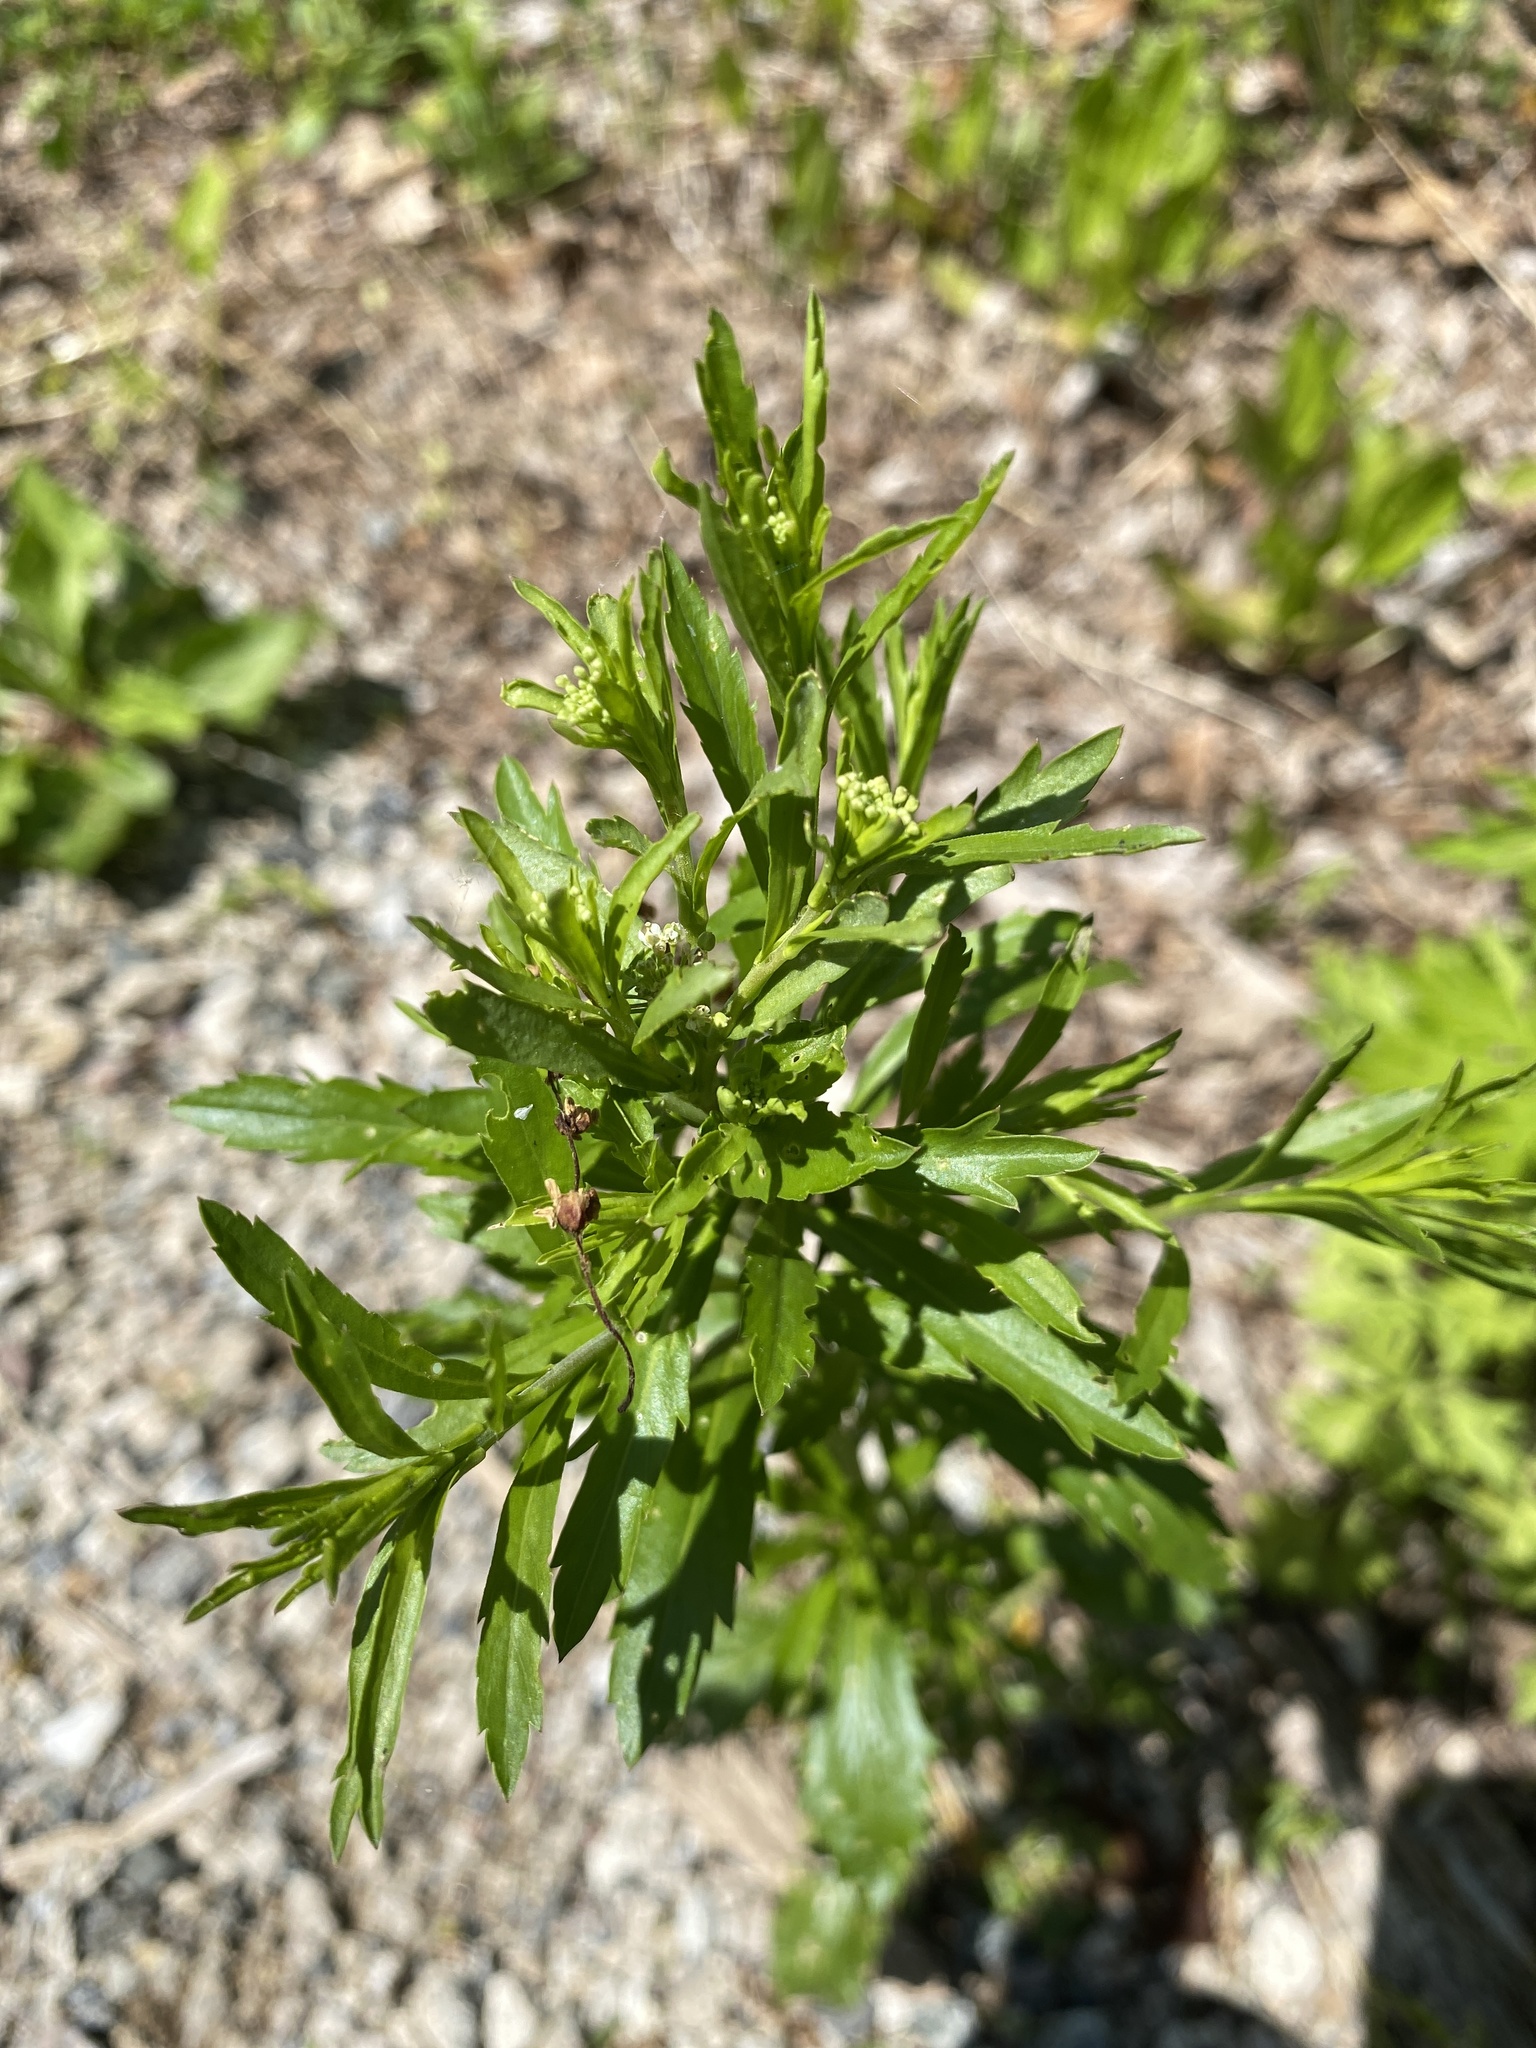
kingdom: Plantae
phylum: Tracheophyta
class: Magnoliopsida
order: Brassicales
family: Brassicaceae
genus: Lepidium
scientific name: Lepidium virginicum
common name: Least pepperwort
